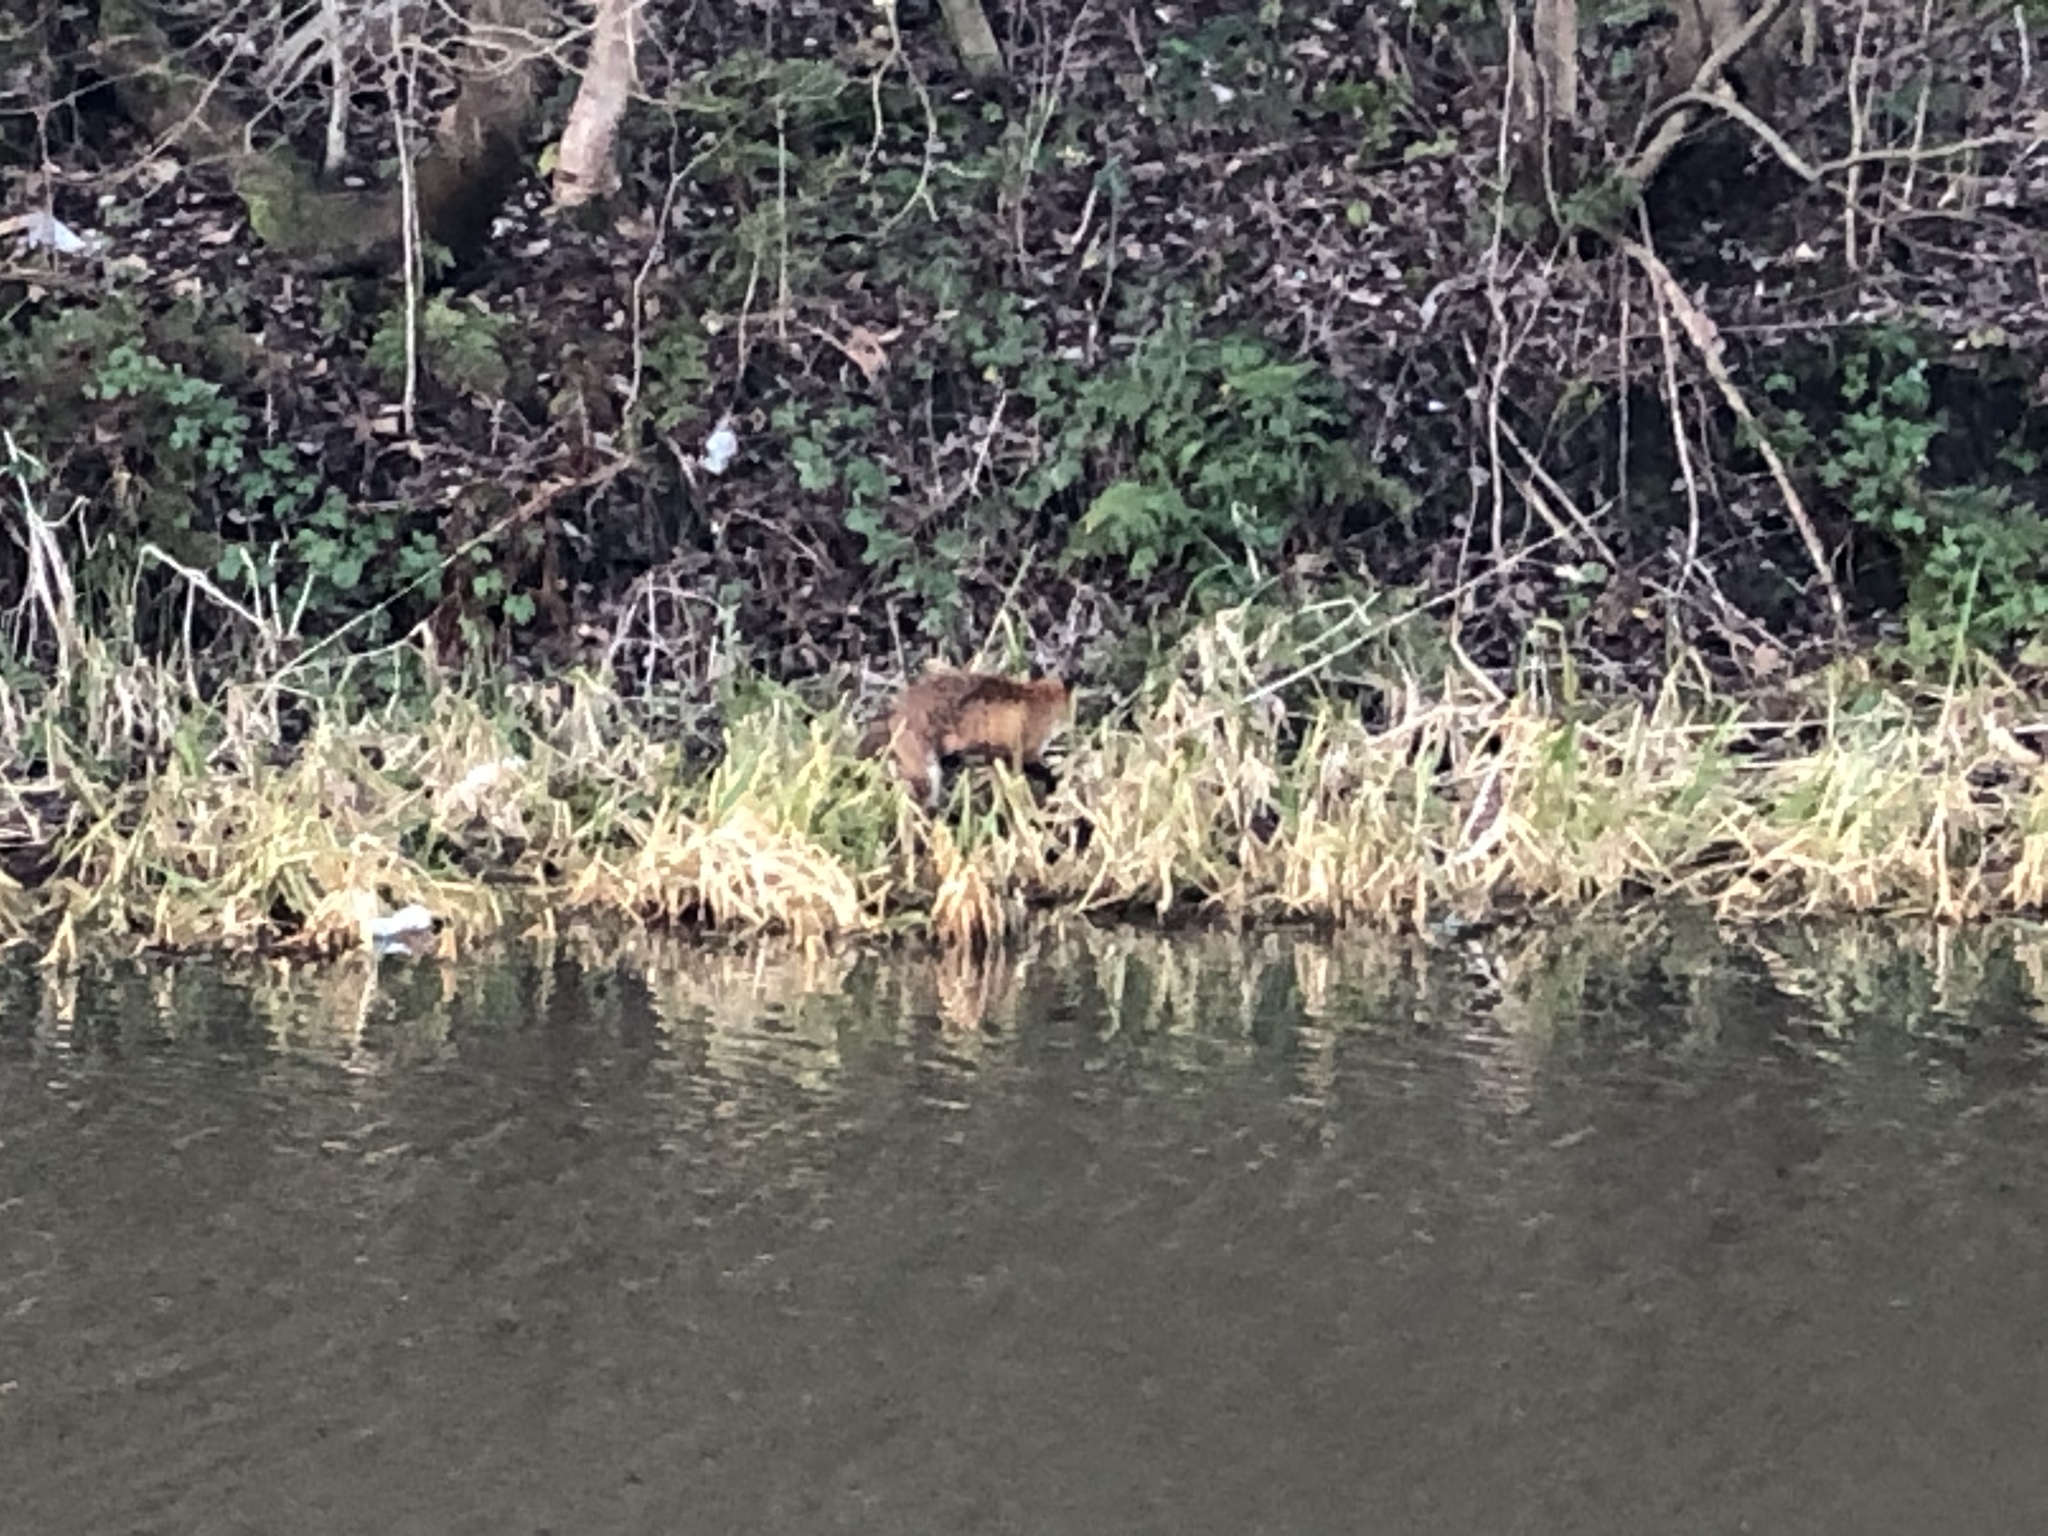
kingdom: Animalia
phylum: Chordata
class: Mammalia
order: Carnivora
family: Canidae
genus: Vulpes
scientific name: Vulpes vulpes
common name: Red fox
